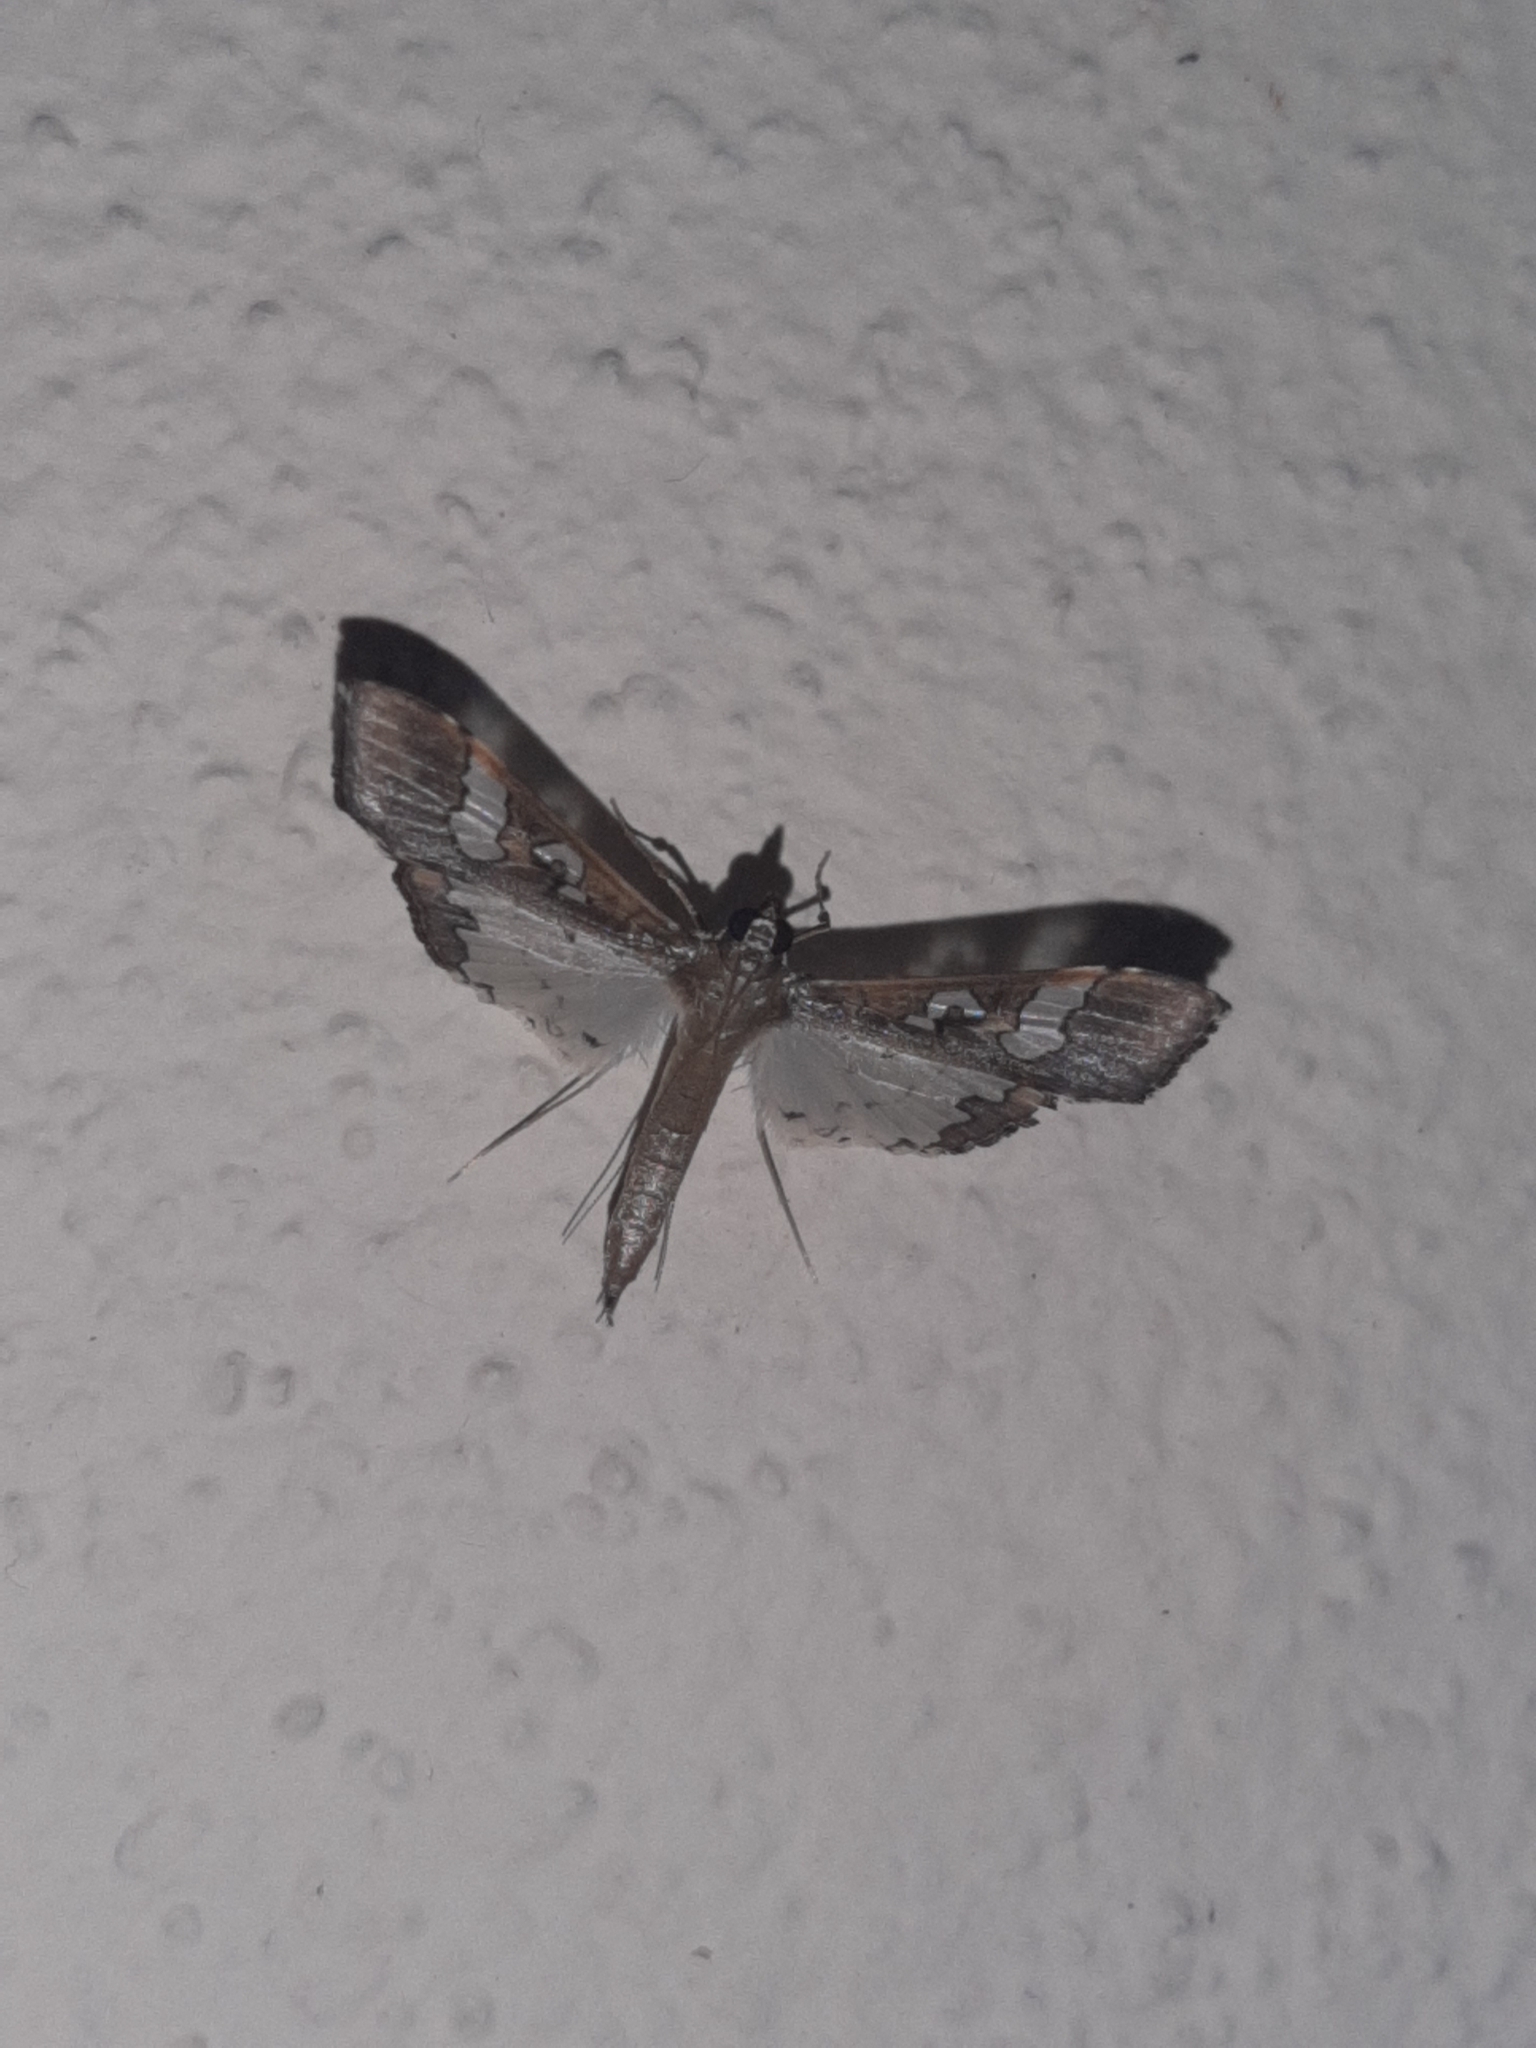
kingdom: Animalia
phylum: Arthropoda
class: Insecta
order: Lepidoptera
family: Crambidae
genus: Maruca
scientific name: Maruca vitrata
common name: Maruca pod borer
